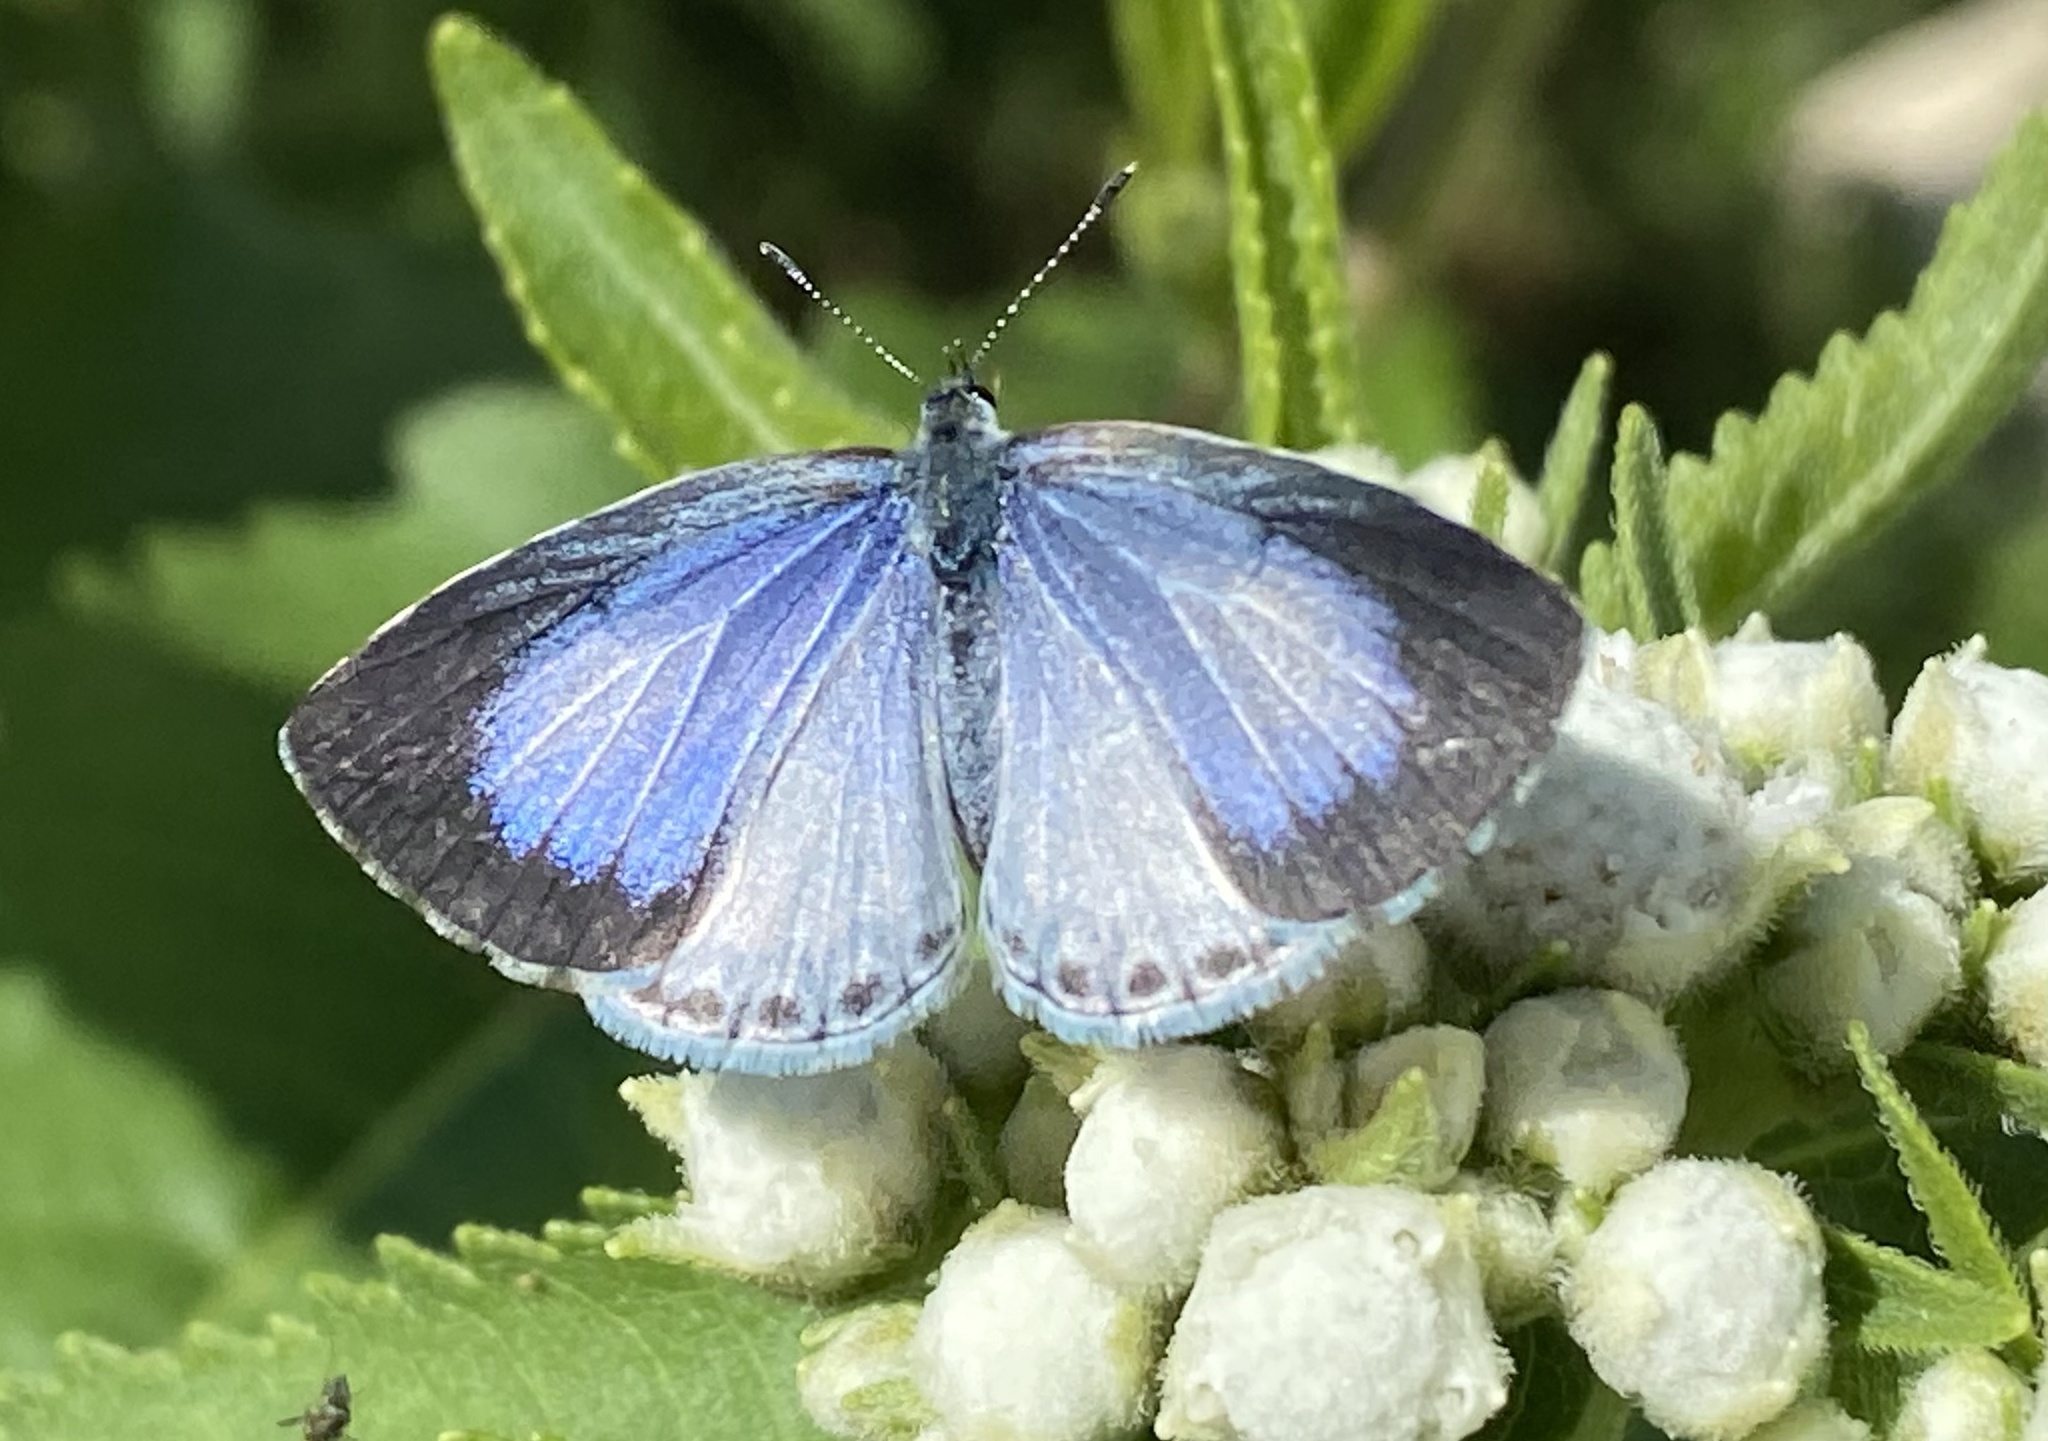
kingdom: Animalia
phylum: Arthropoda
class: Insecta
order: Lepidoptera
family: Lycaenidae
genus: Cyaniris
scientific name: Cyaniris neglecta
